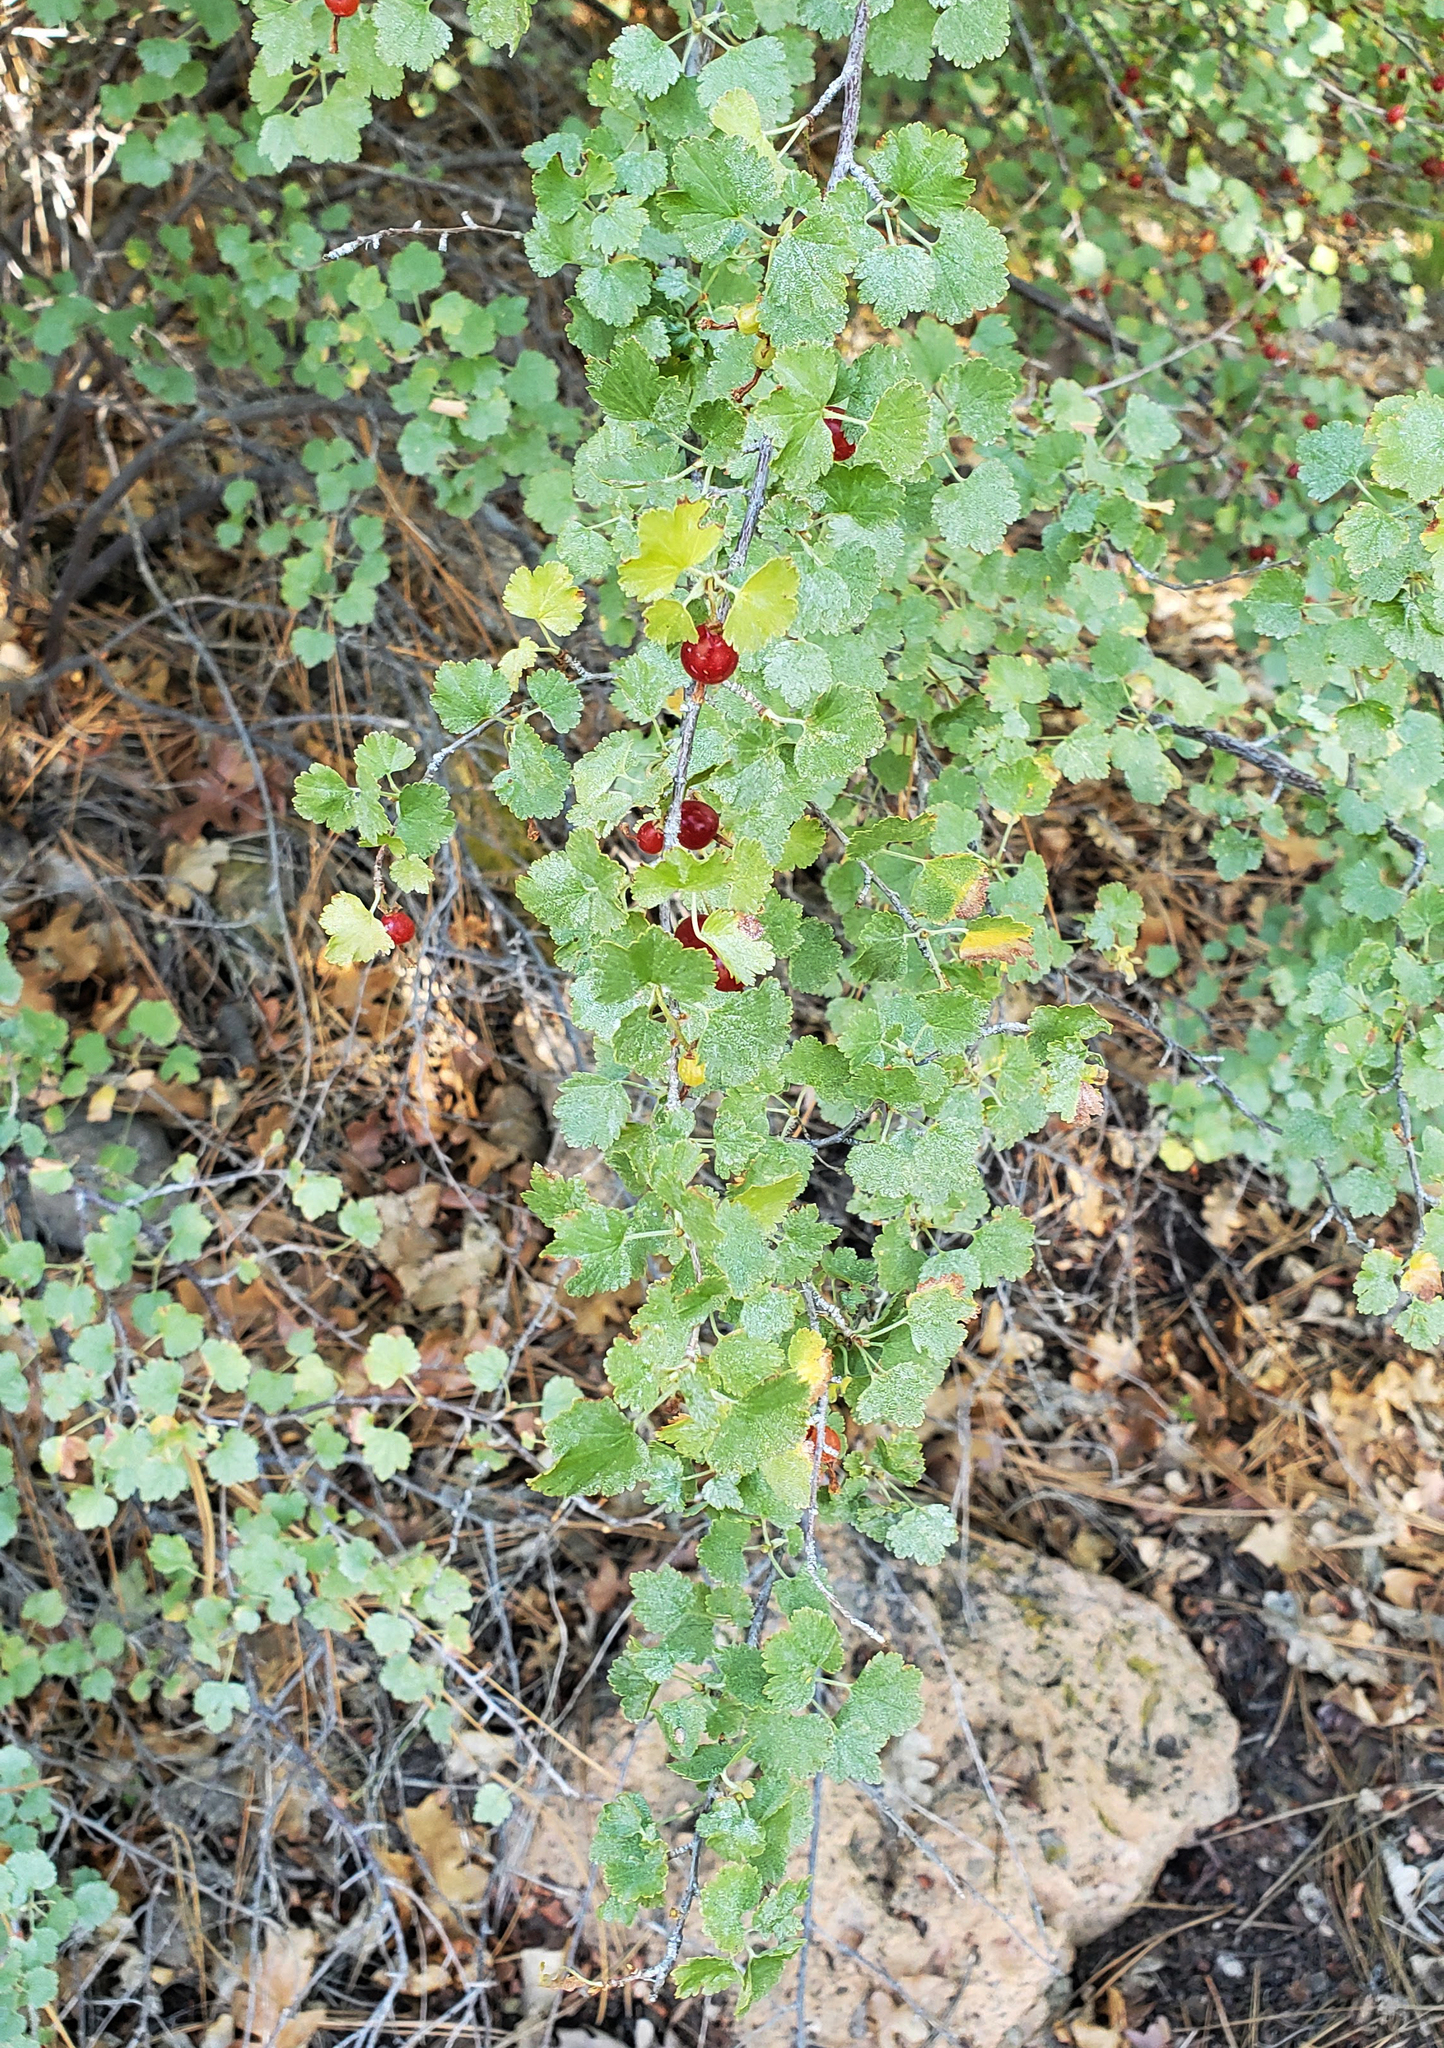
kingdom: Plantae
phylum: Tracheophyta
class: Magnoliopsida
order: Saxifragales
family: Grossulariaceae
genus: Ribes
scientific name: Ribes cereum
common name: Wax currant
